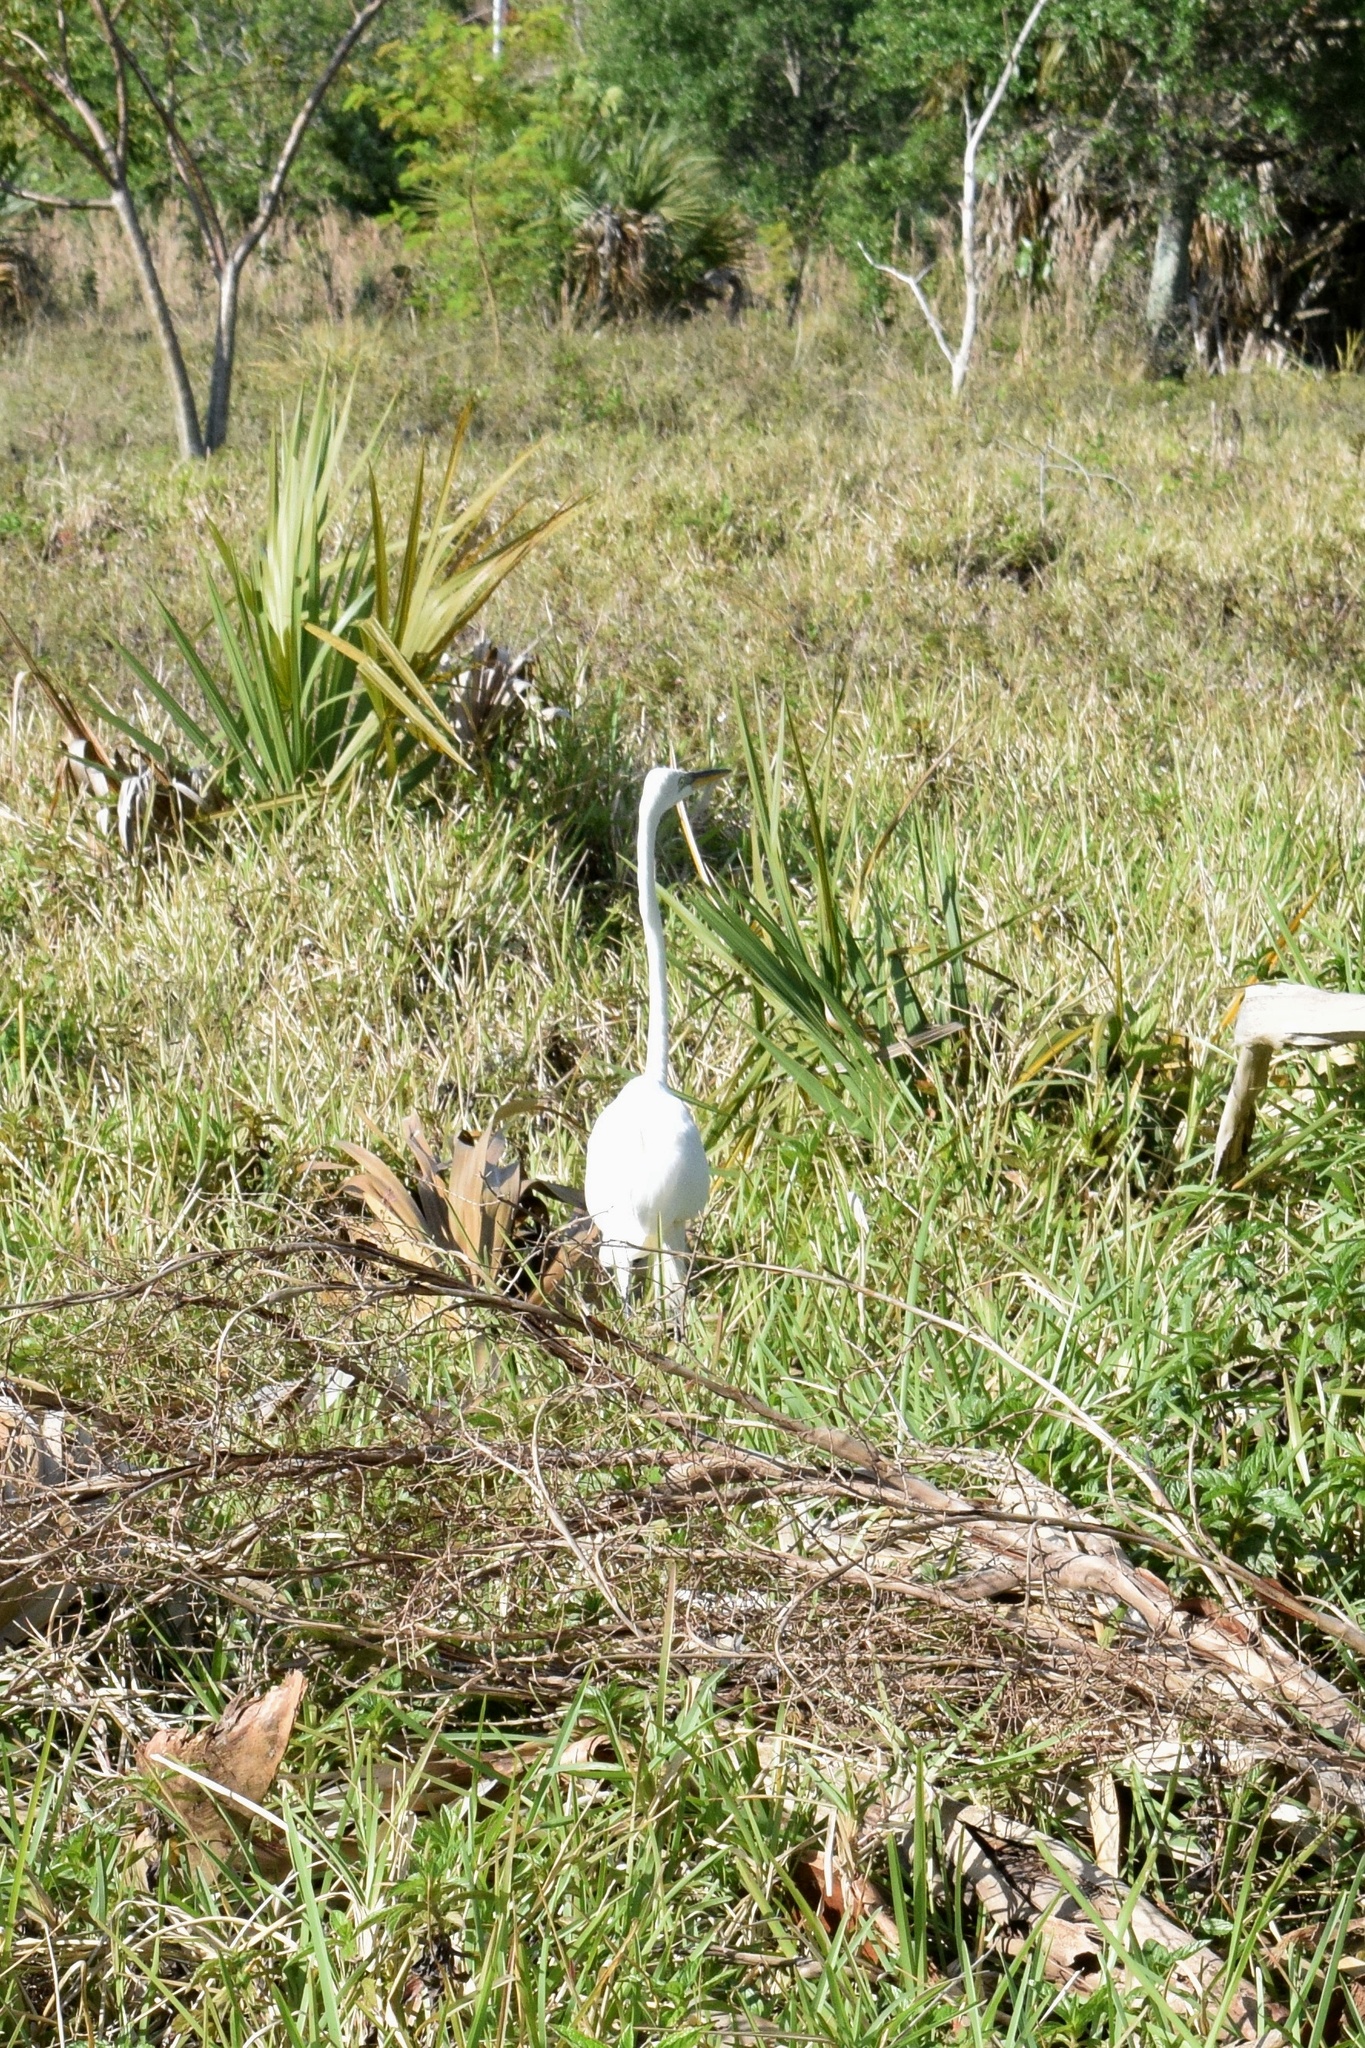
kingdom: Animalia
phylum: Chordata
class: Aves
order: Pelecaniformes
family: Ardeidae
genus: Ardea
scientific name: Ardea alba
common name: Great egret
